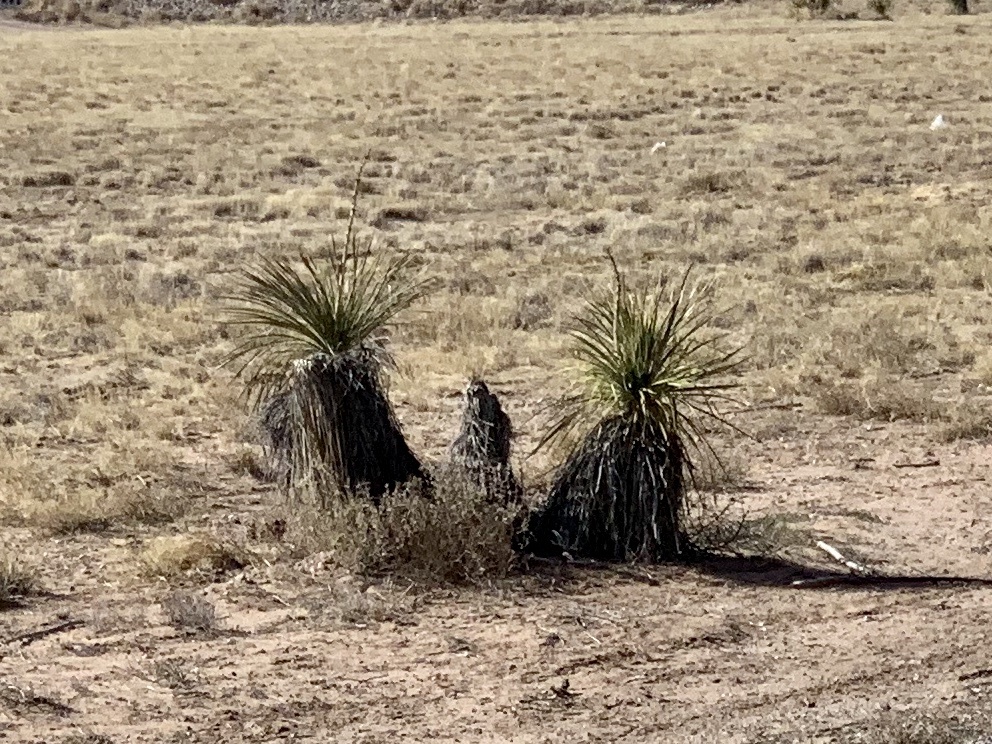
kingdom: Plantae
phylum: Tracheophyta
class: Liliopsida
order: Asparagales
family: Asparagaceae
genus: Yucca
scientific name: Yucca elata
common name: Palmella
